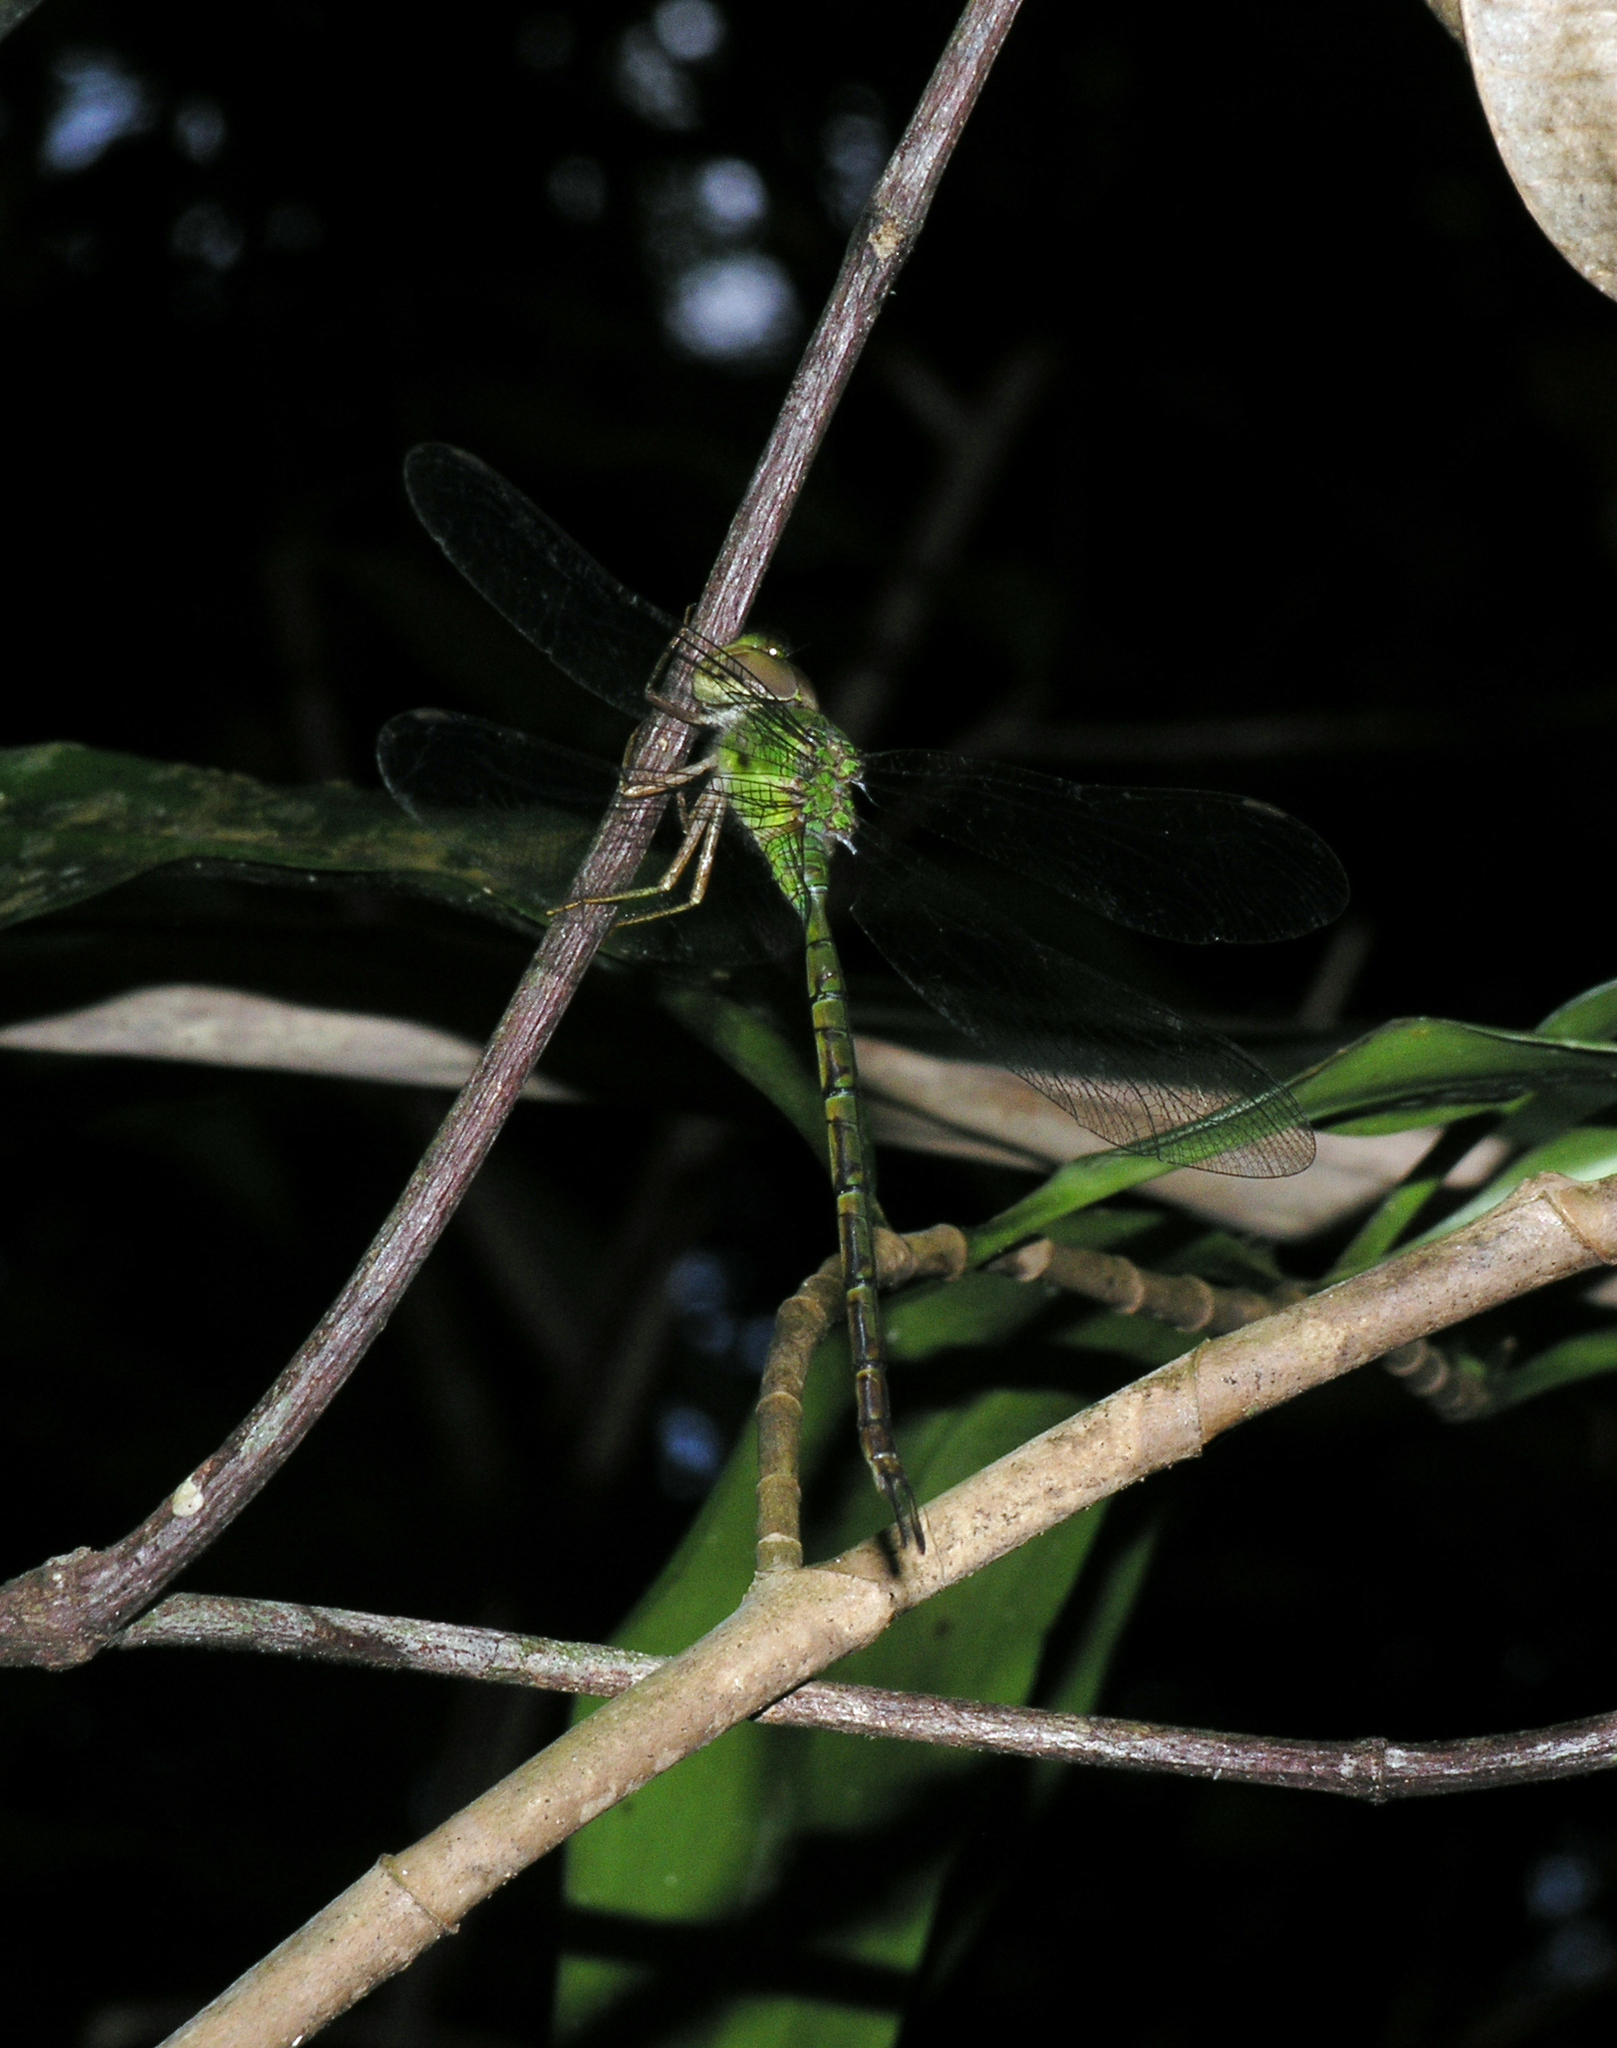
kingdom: Animalia
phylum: Arthropoda
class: Insecta
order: Odonata
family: Aeshnidae
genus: Gynacantha
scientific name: Gynacantha bayadera
